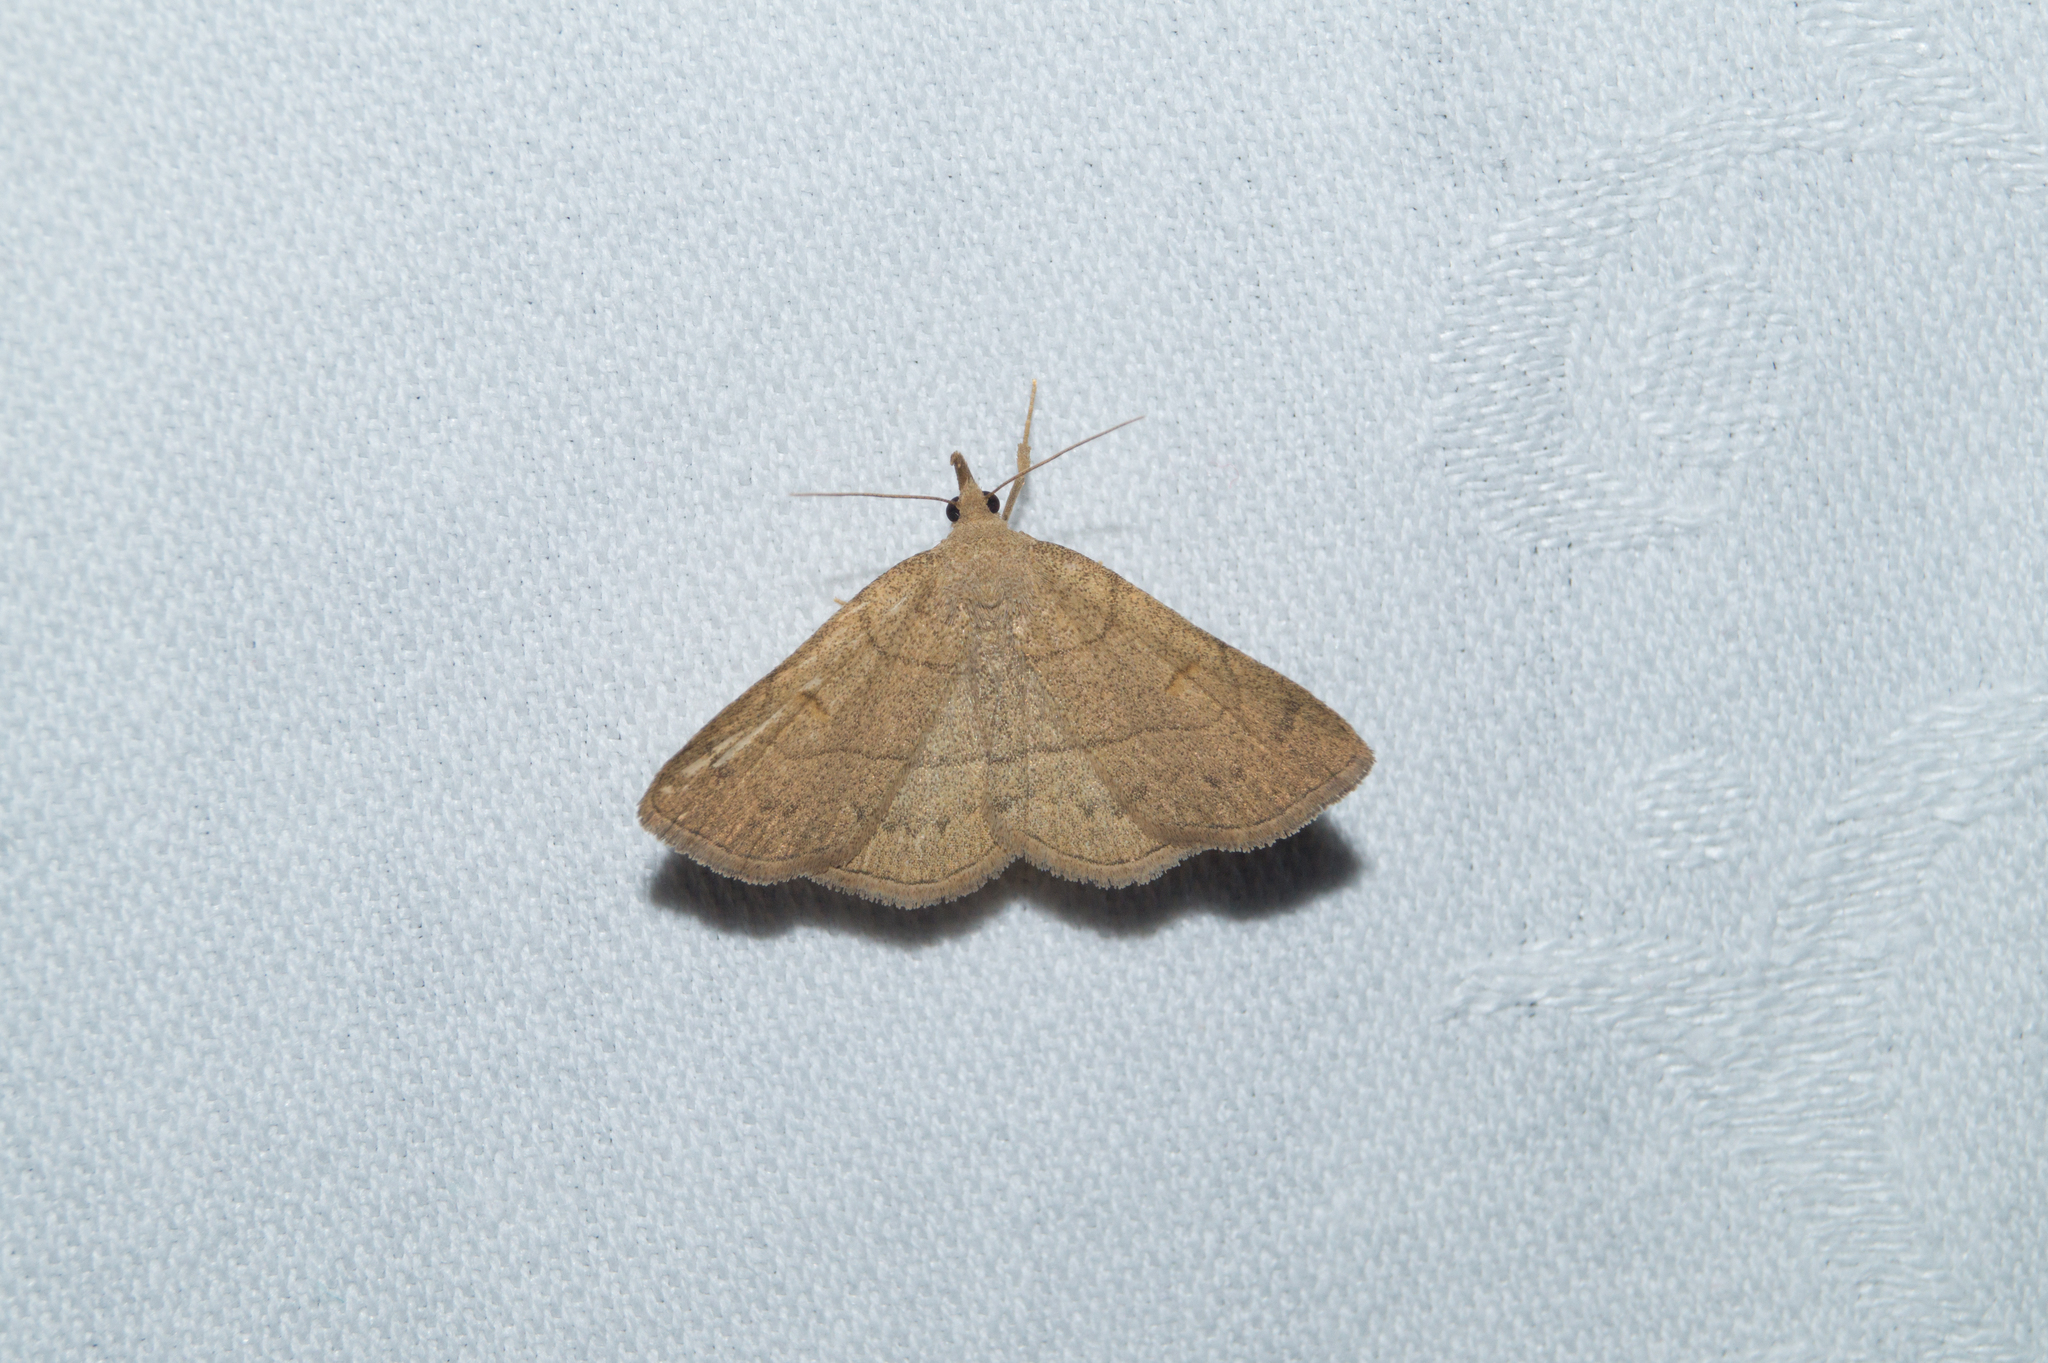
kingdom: Animalia
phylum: Arthropoda
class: Insecta
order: Lepidoptera
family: Erebidae
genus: Paracolax
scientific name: Paracolax tristalis
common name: Clay fan-foot
